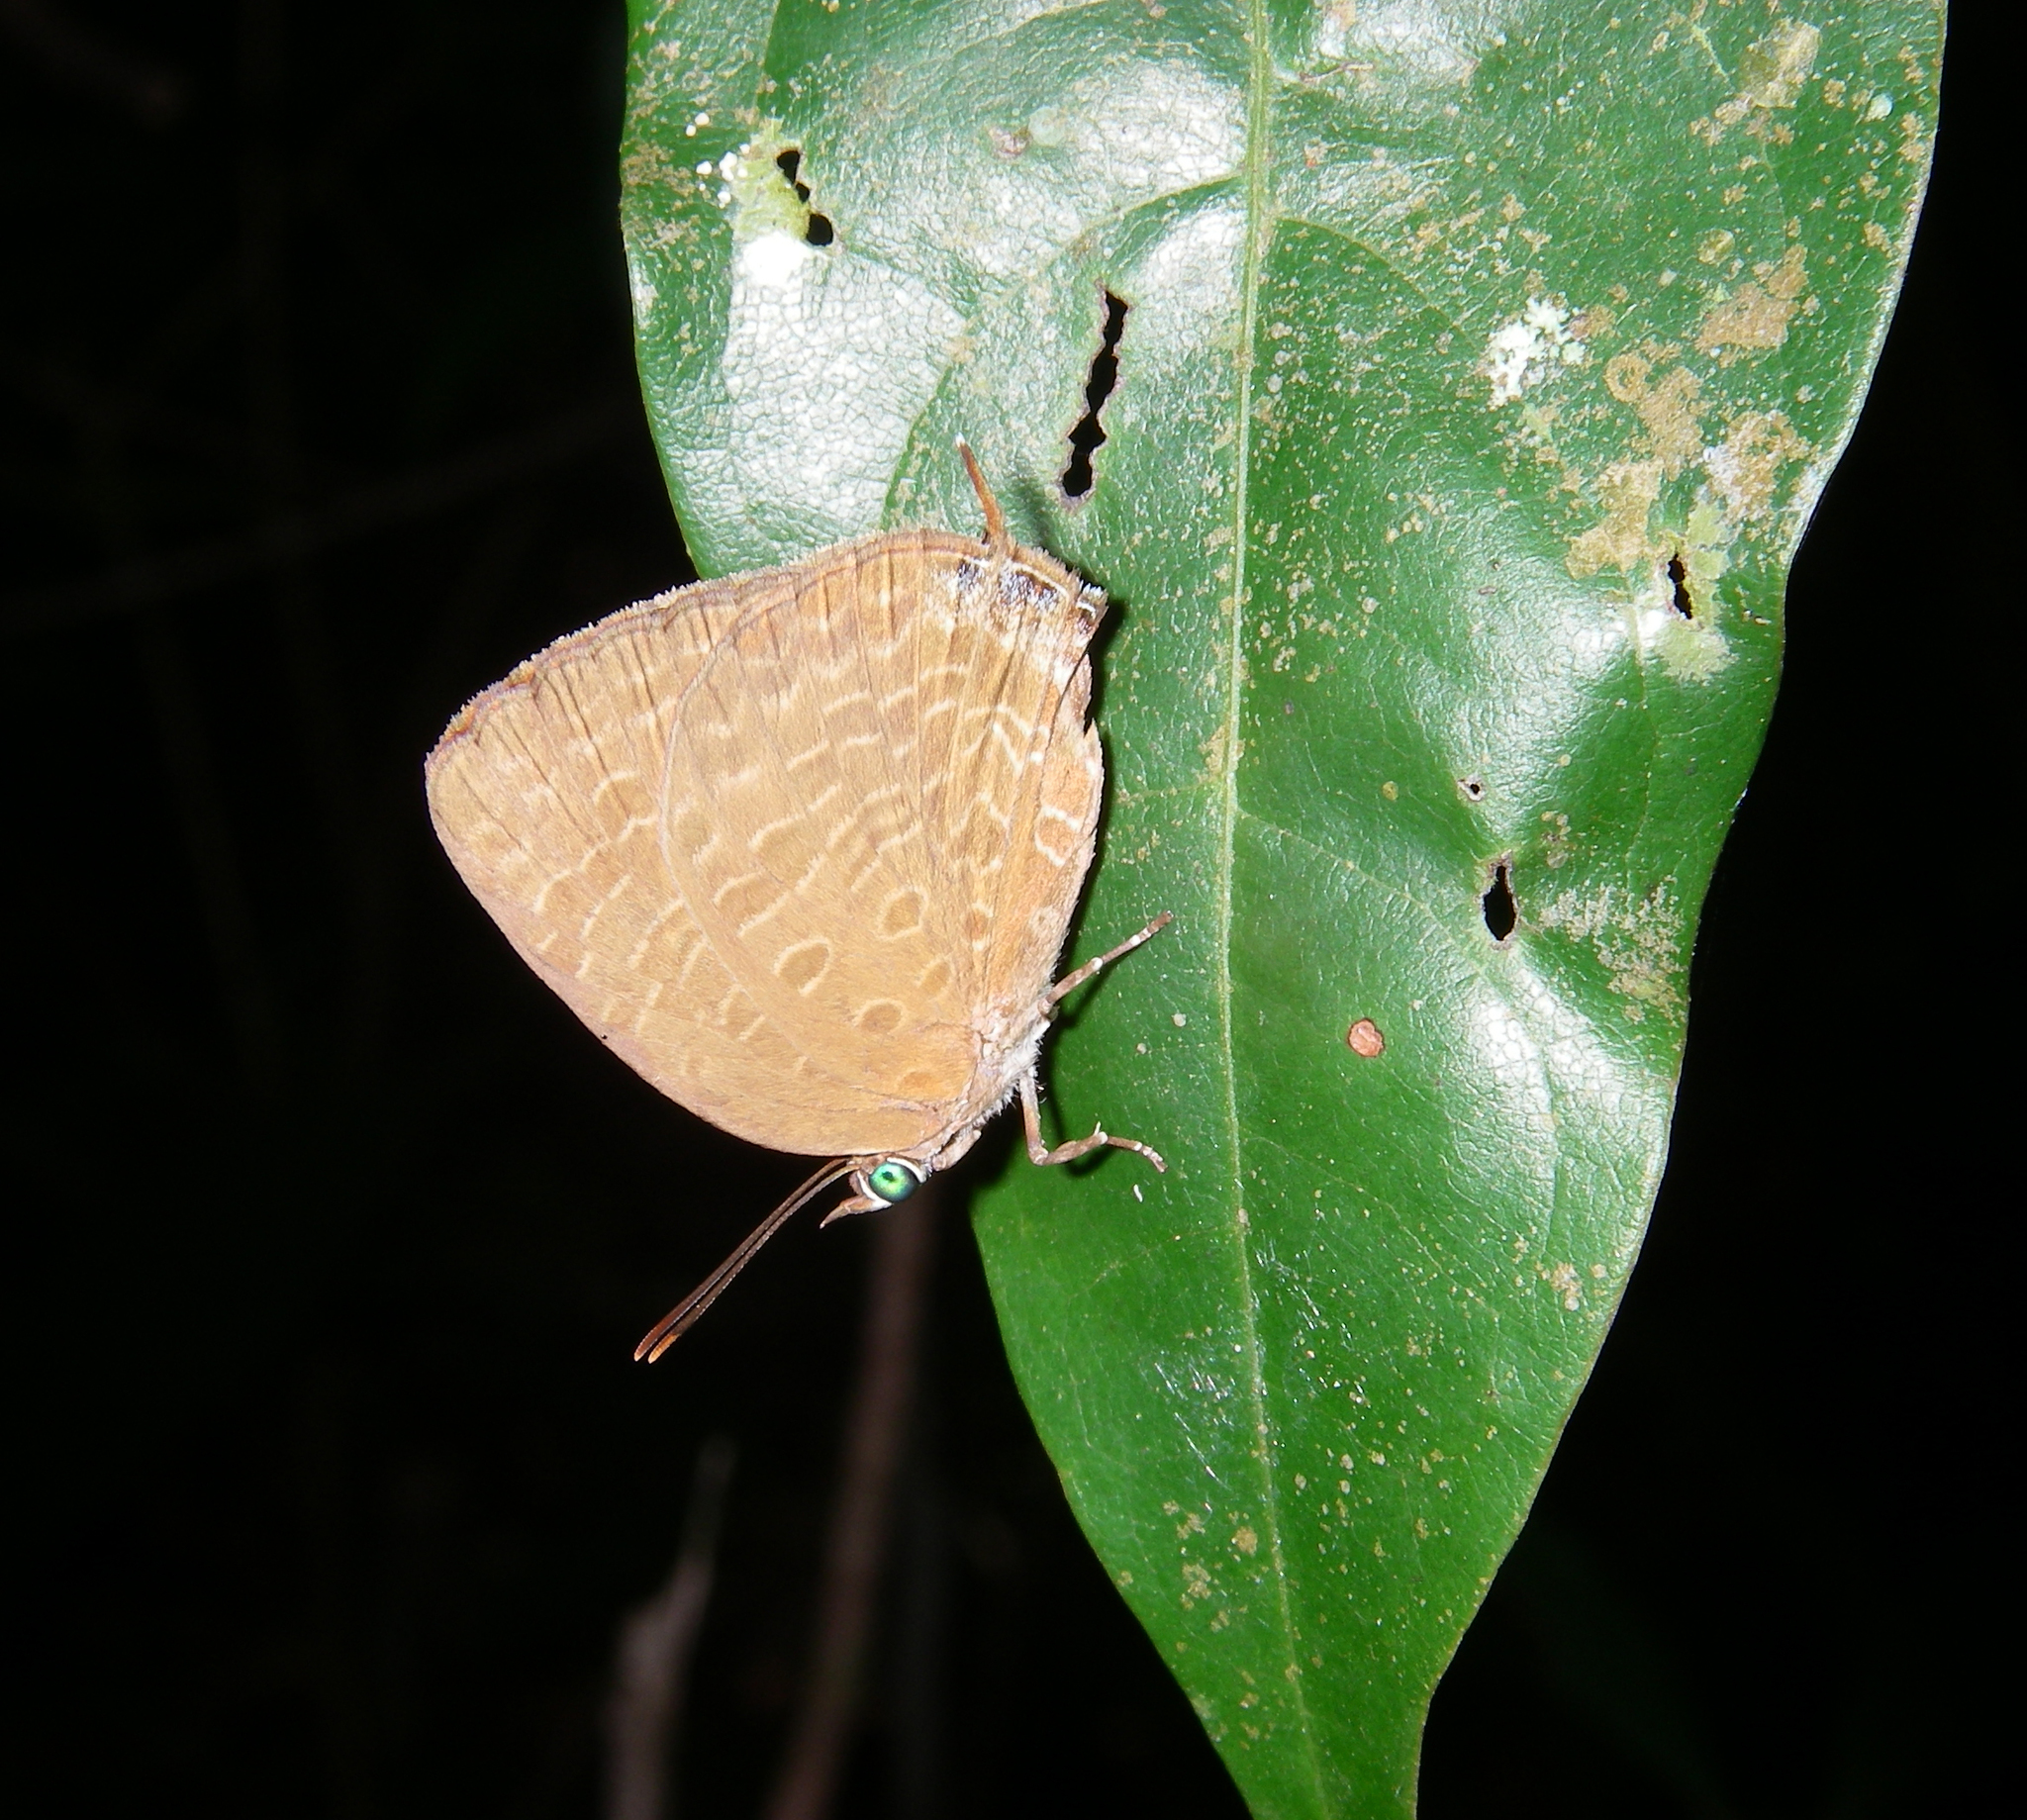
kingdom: Animalia
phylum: Arthropoda
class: Insecta
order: Lepidoptera
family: Lycaenidae
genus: Arhopala
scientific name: Arhopala elopura
